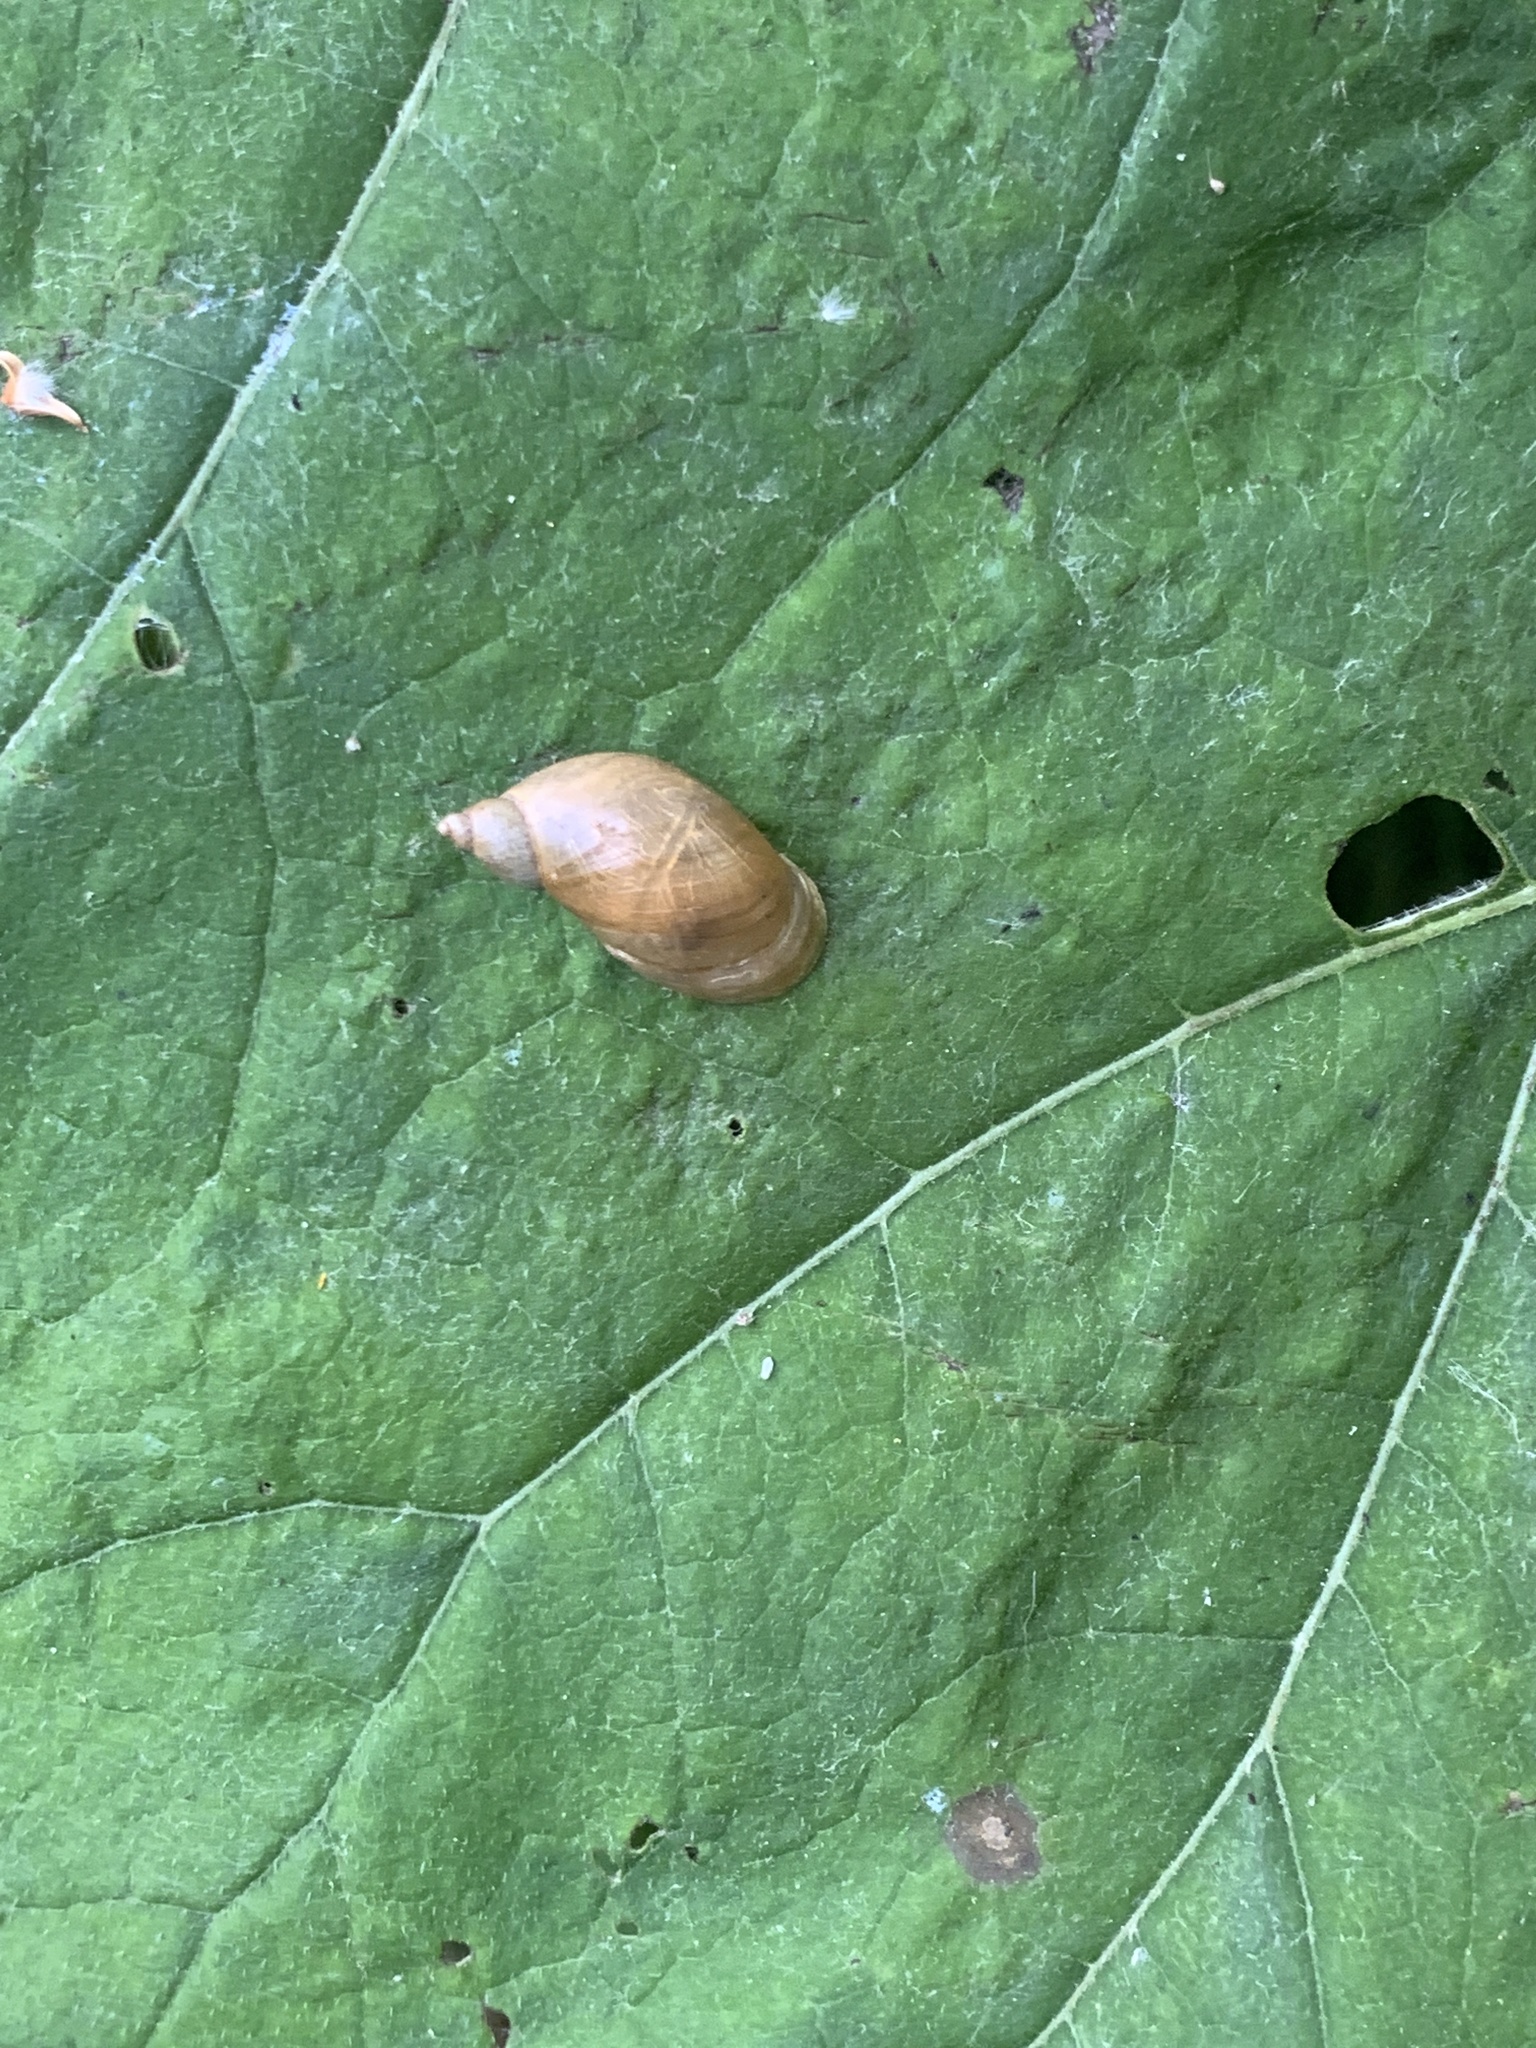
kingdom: Animalia
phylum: Mollusca
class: Gastropoda
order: Stylommatophora
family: Succineidae
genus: Succinea
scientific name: Succinea putris
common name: European ambersnail
